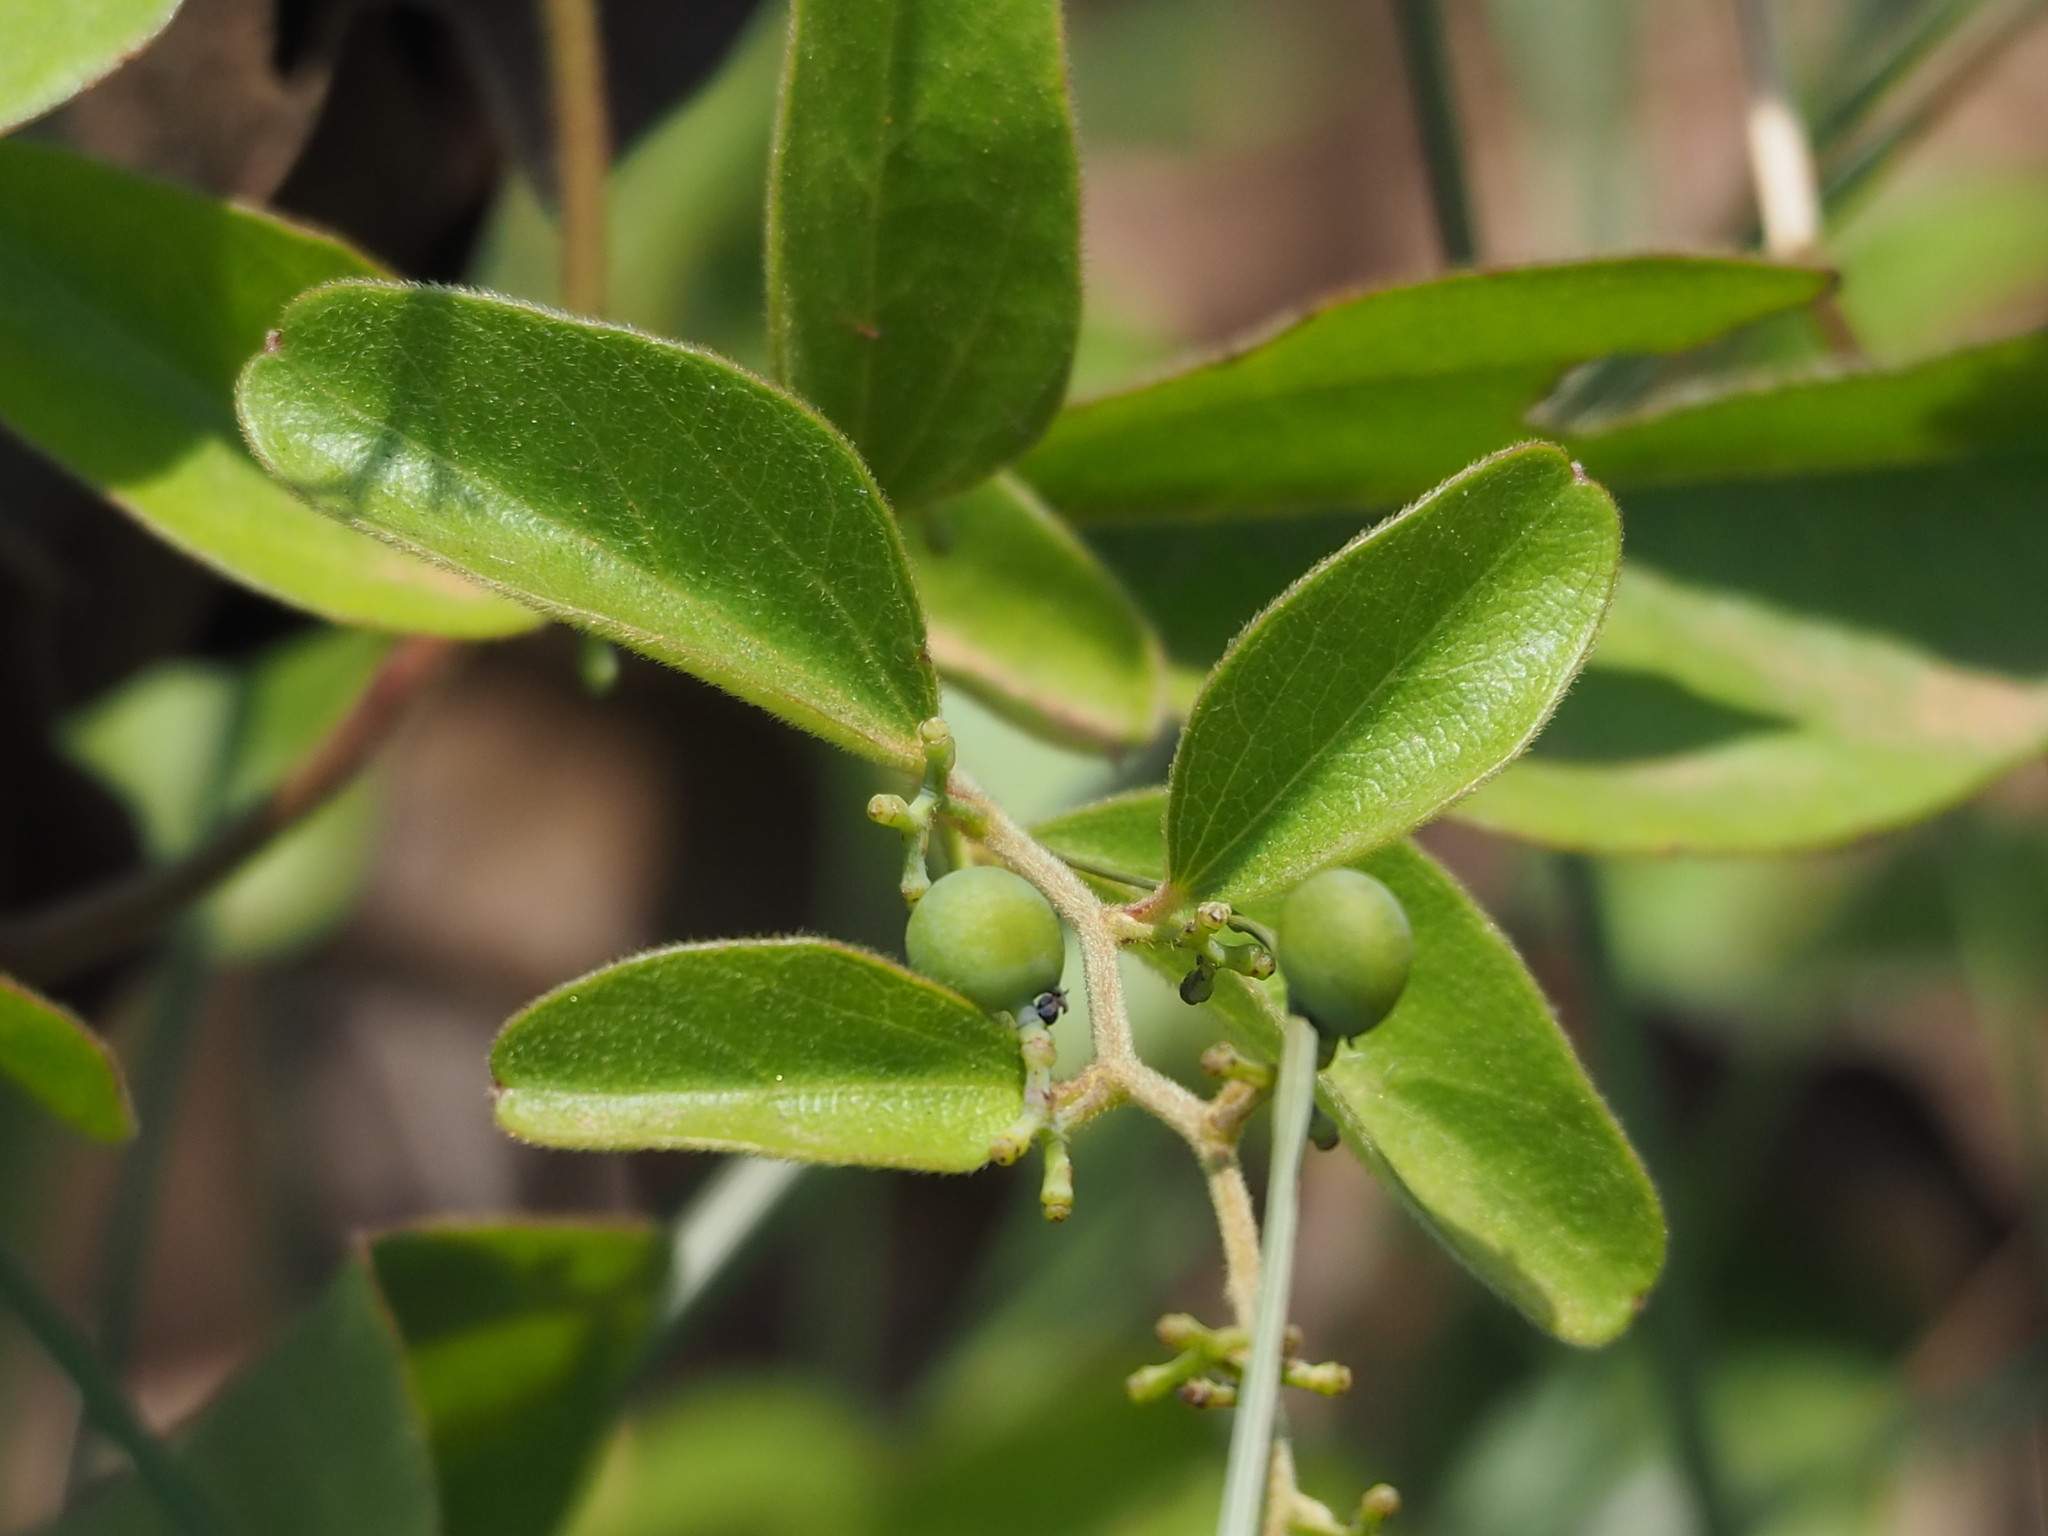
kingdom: Plantae
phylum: Tracheophyta
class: Magnoliopsida
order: Ranunculales
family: Menispermaceae
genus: Cocculus
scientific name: Cocculus orbiculatus
